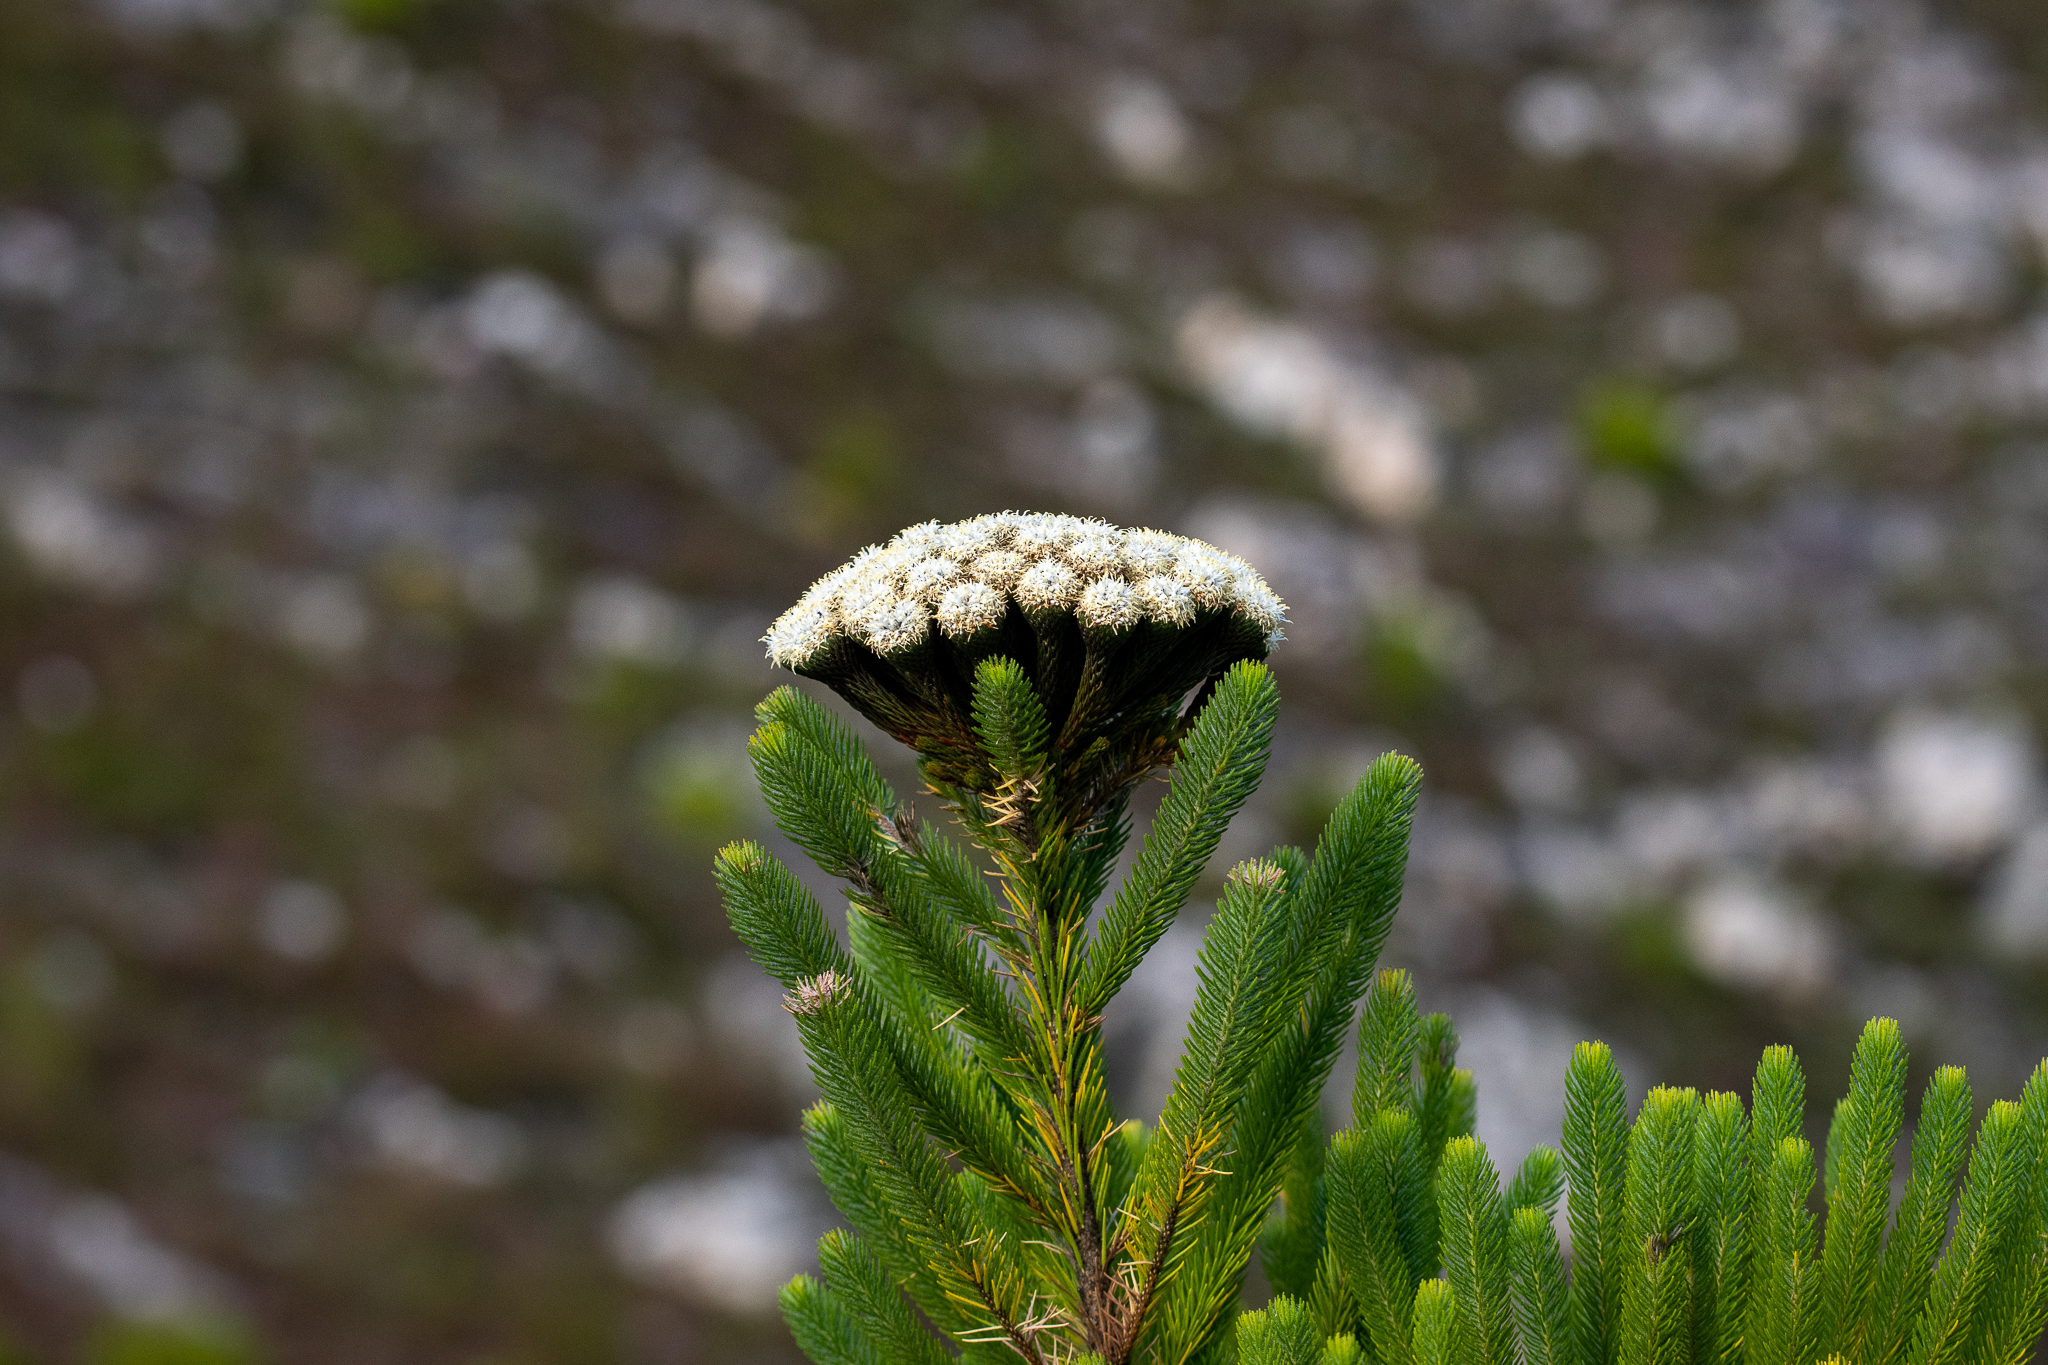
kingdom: Plantae
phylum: Tracheophyta
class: Magnoliopsida
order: Bruniales
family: Bruniaceae
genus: Berzelia
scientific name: Berzelia albiflora
